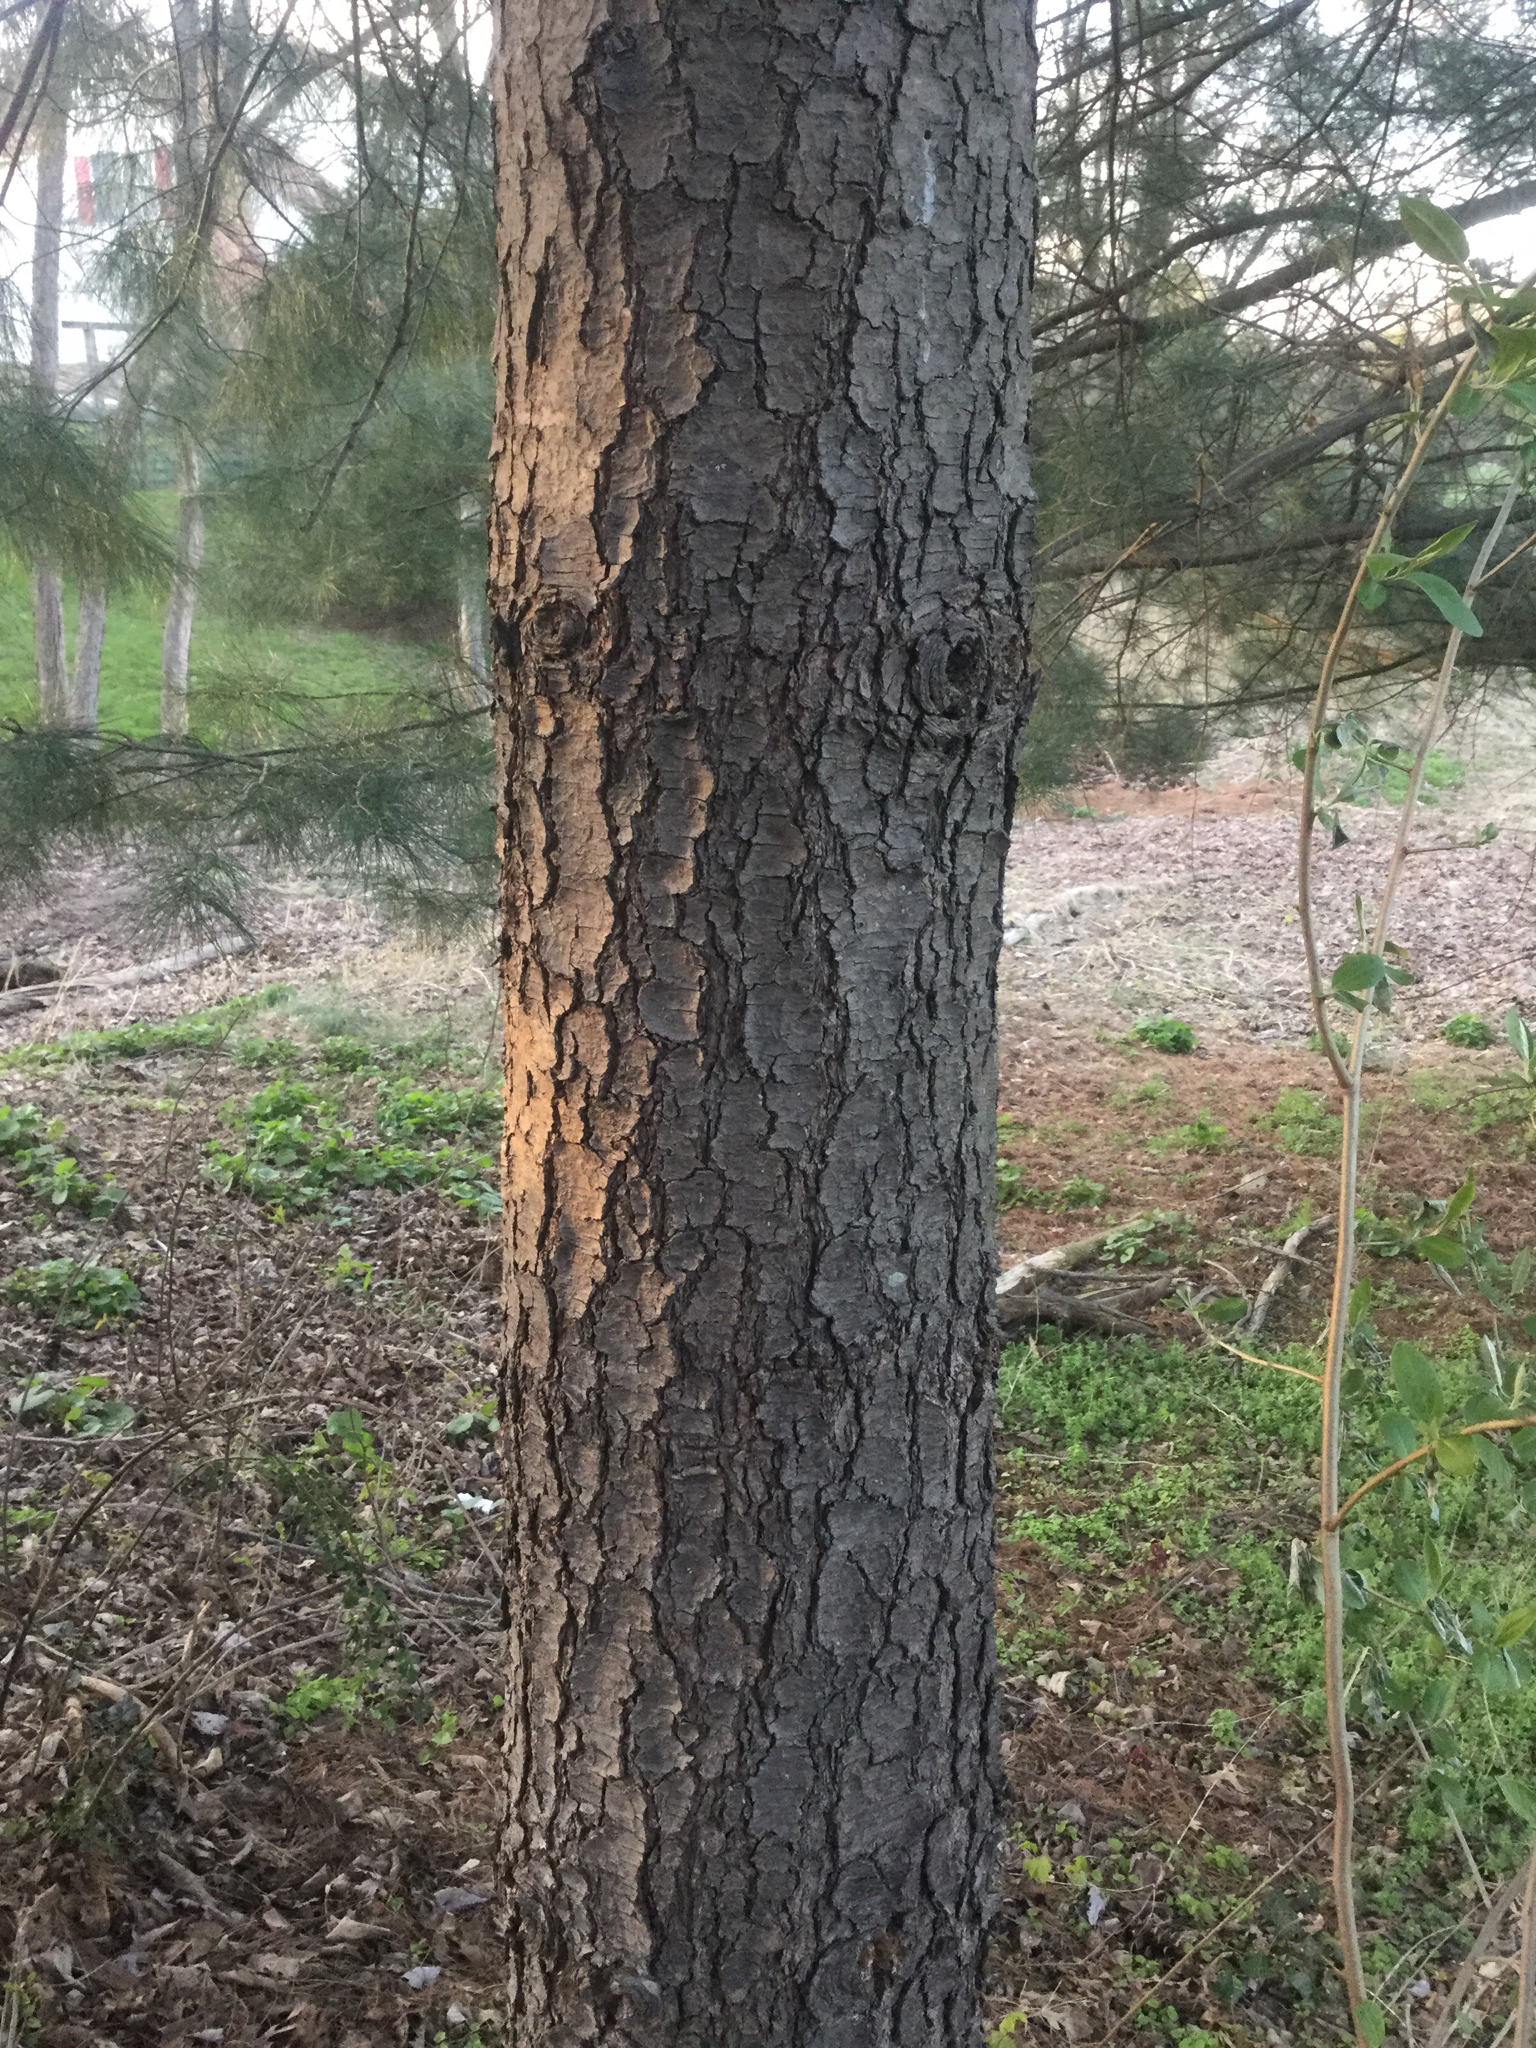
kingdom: Plantae
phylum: Tracheophyta
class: Pinopsida
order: Pinales
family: Pinaceae
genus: Pinus
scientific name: Pinus strobus
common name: Weymouth pine
